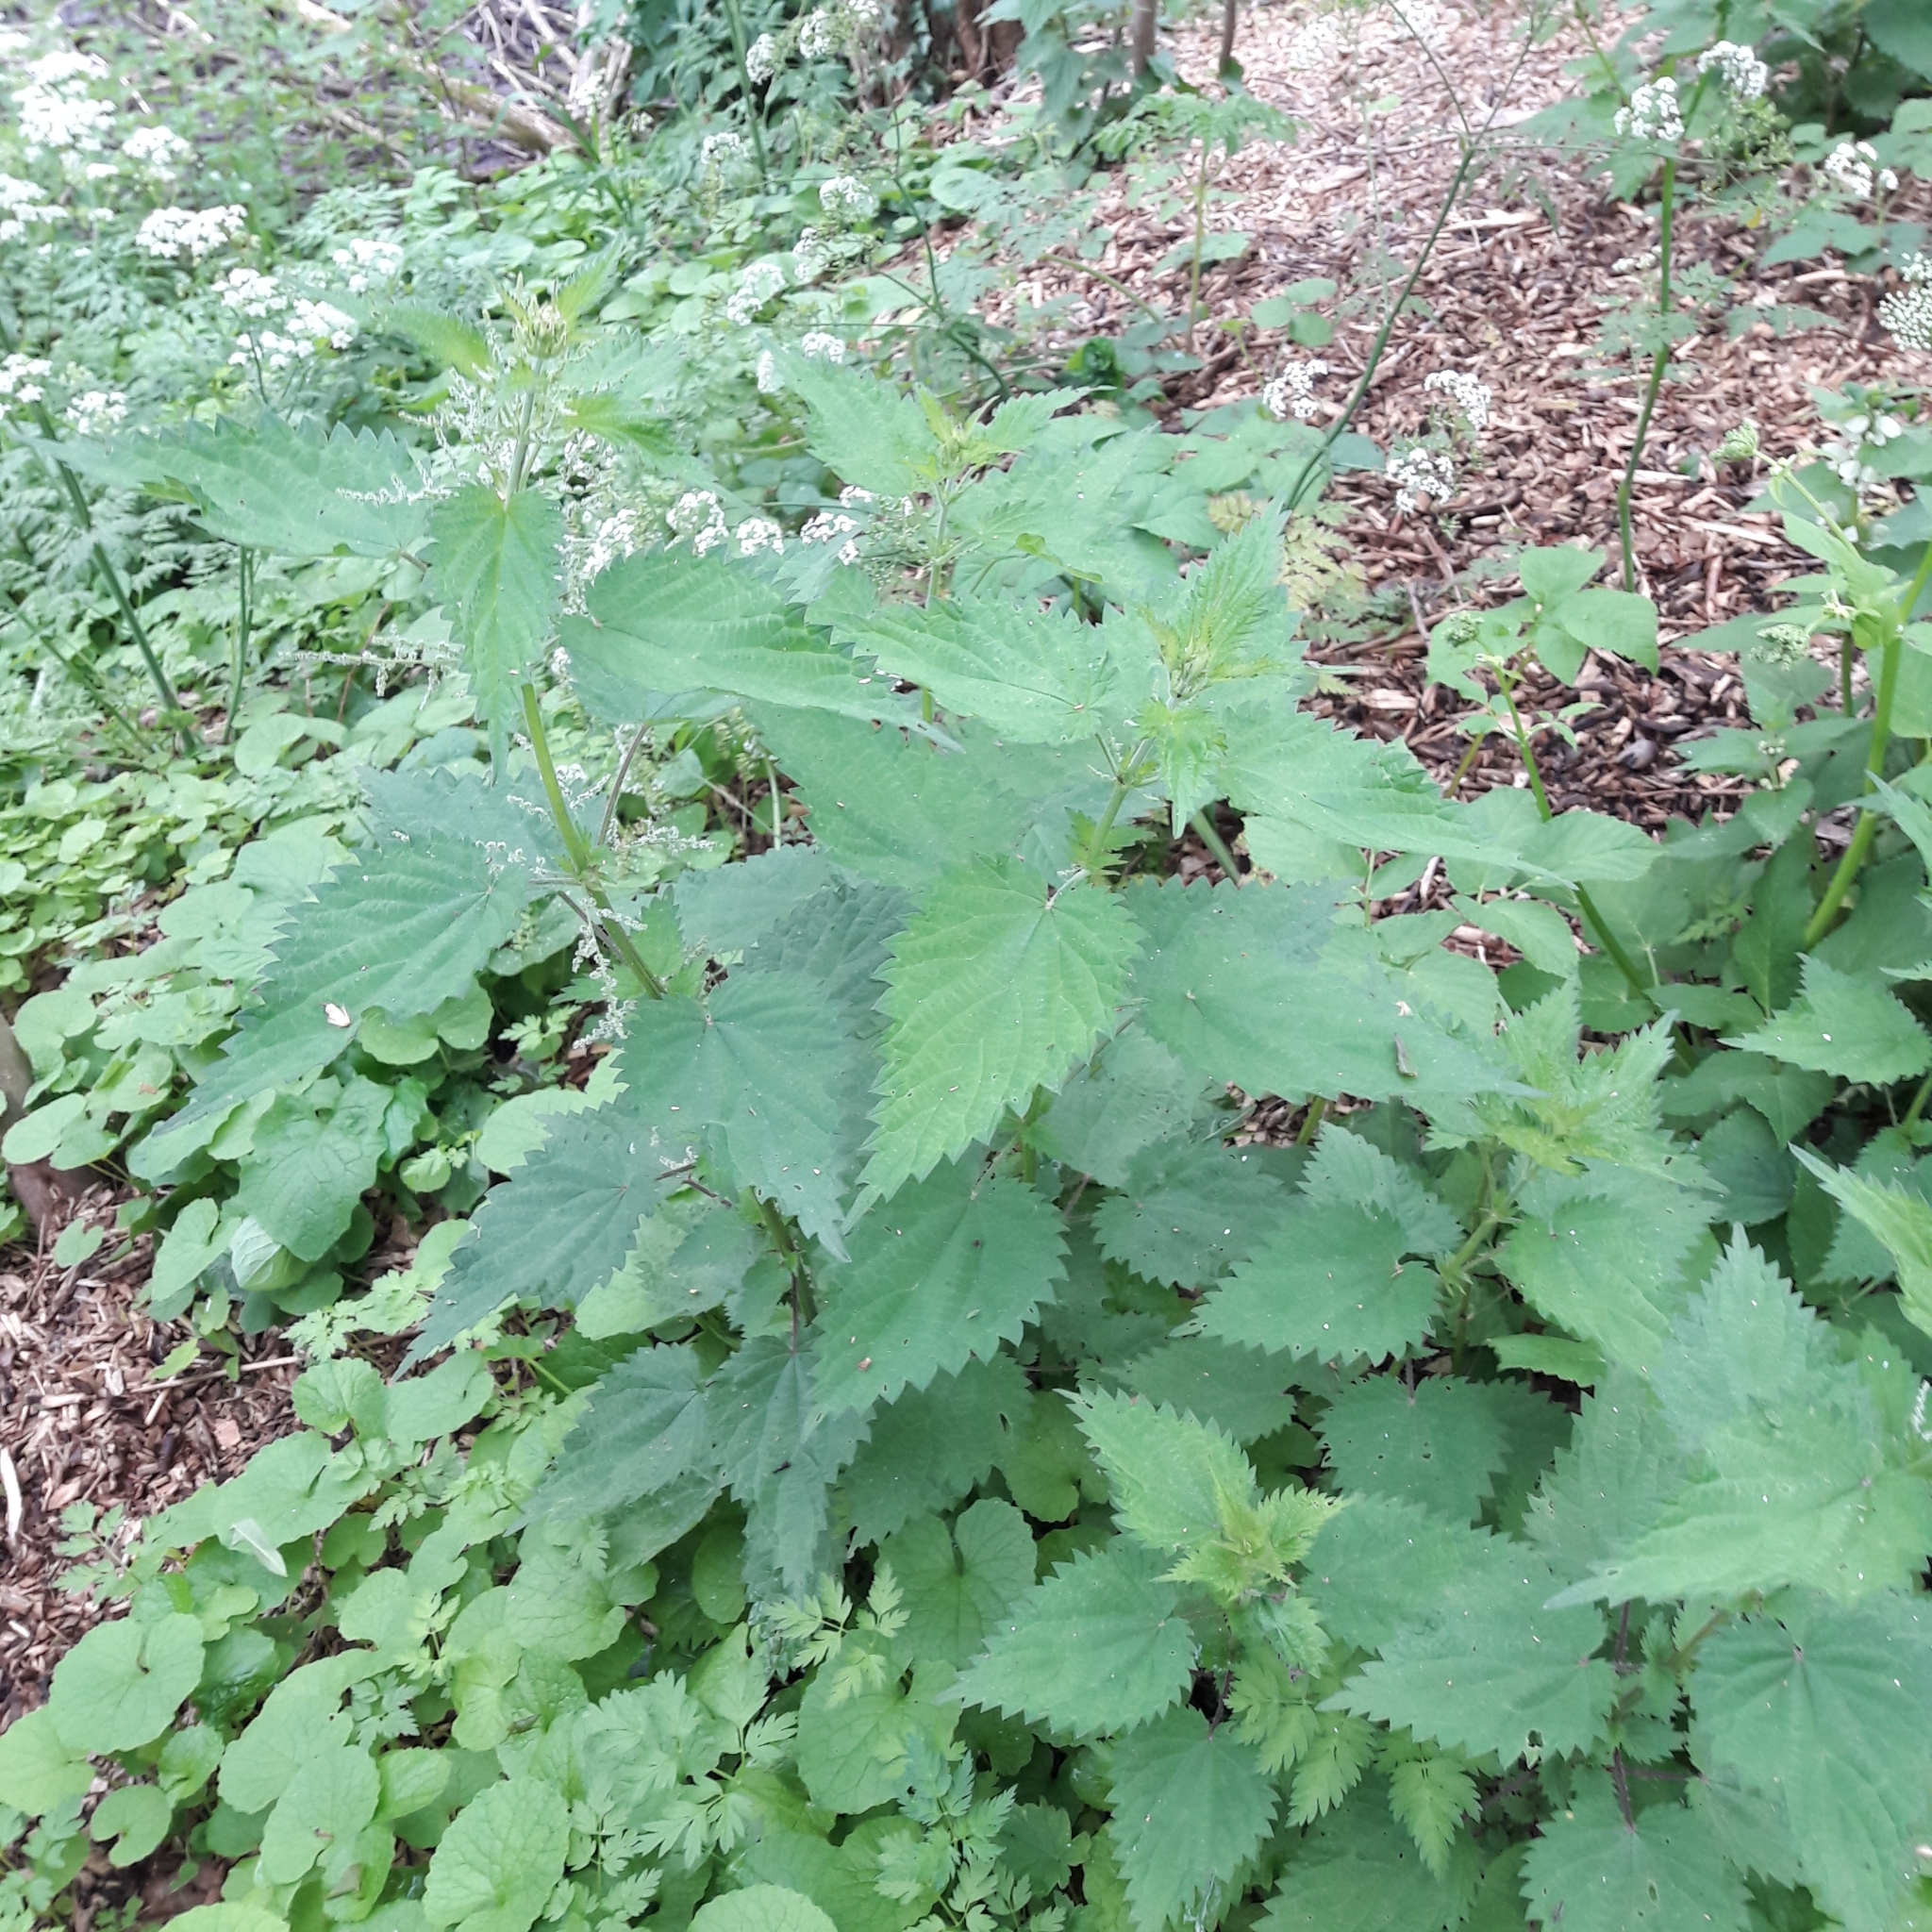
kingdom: Plantae
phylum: Tracheophyta
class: Magnoliopsida
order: Rosales
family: Urticaceae
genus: Urtica
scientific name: Urtica dioica
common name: Common nettle
